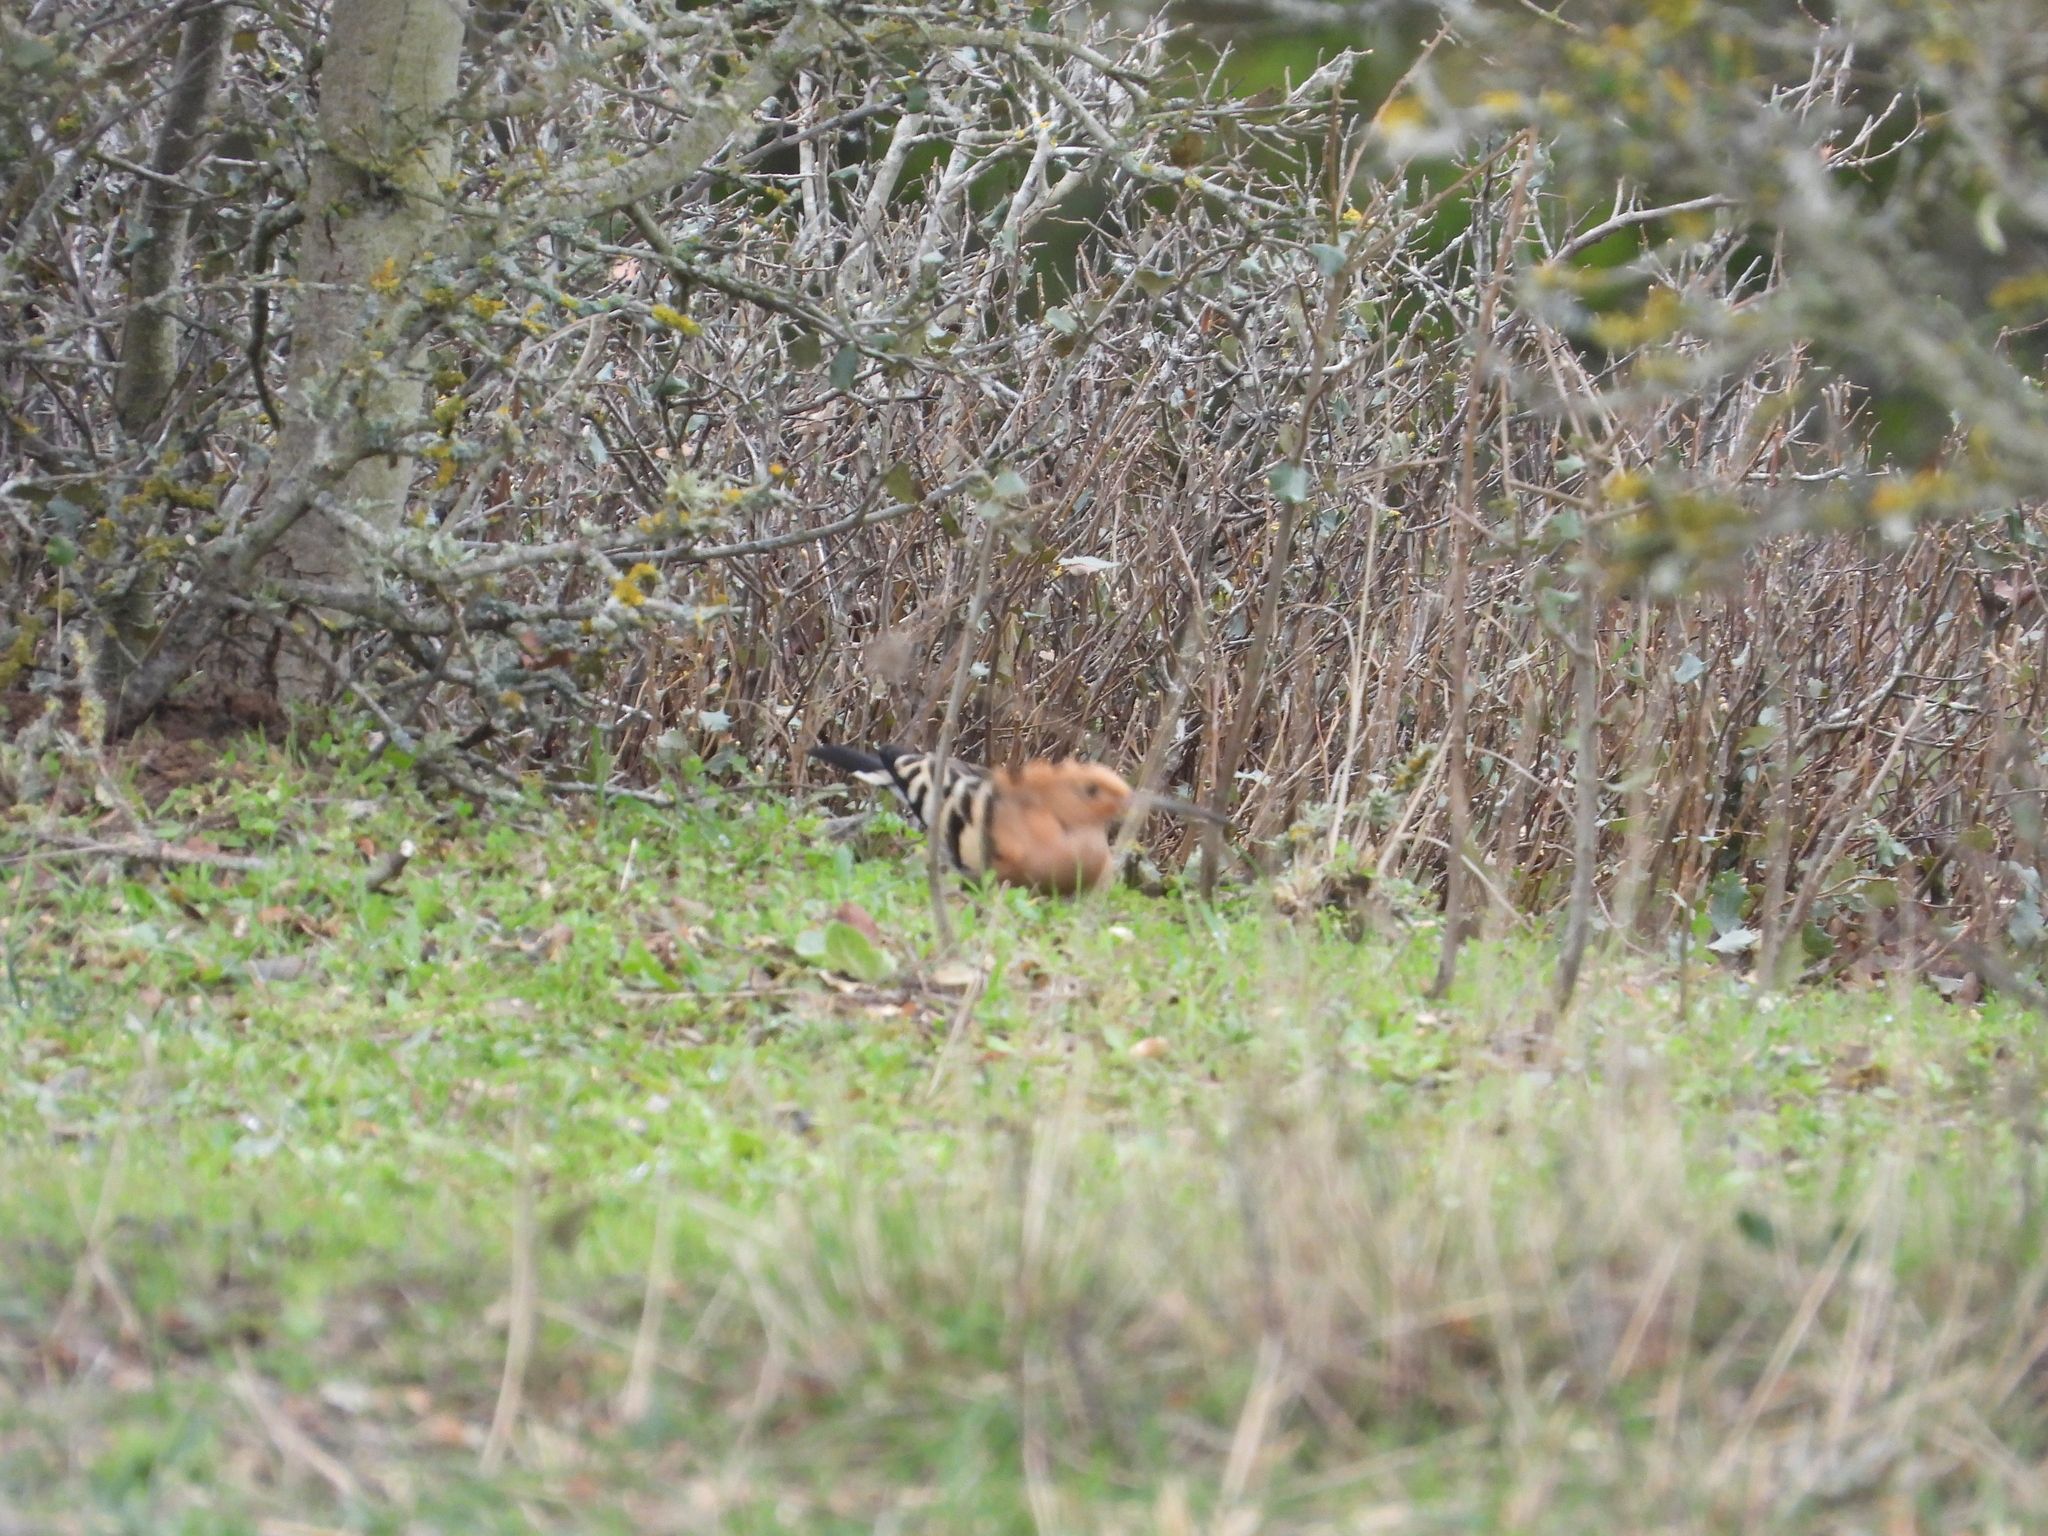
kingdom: Animalia
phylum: Chordata
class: Aves
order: Bucerotiformes
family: Upupidae
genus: Upupa
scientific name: Upupa epops
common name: Eurasian hoopoe
